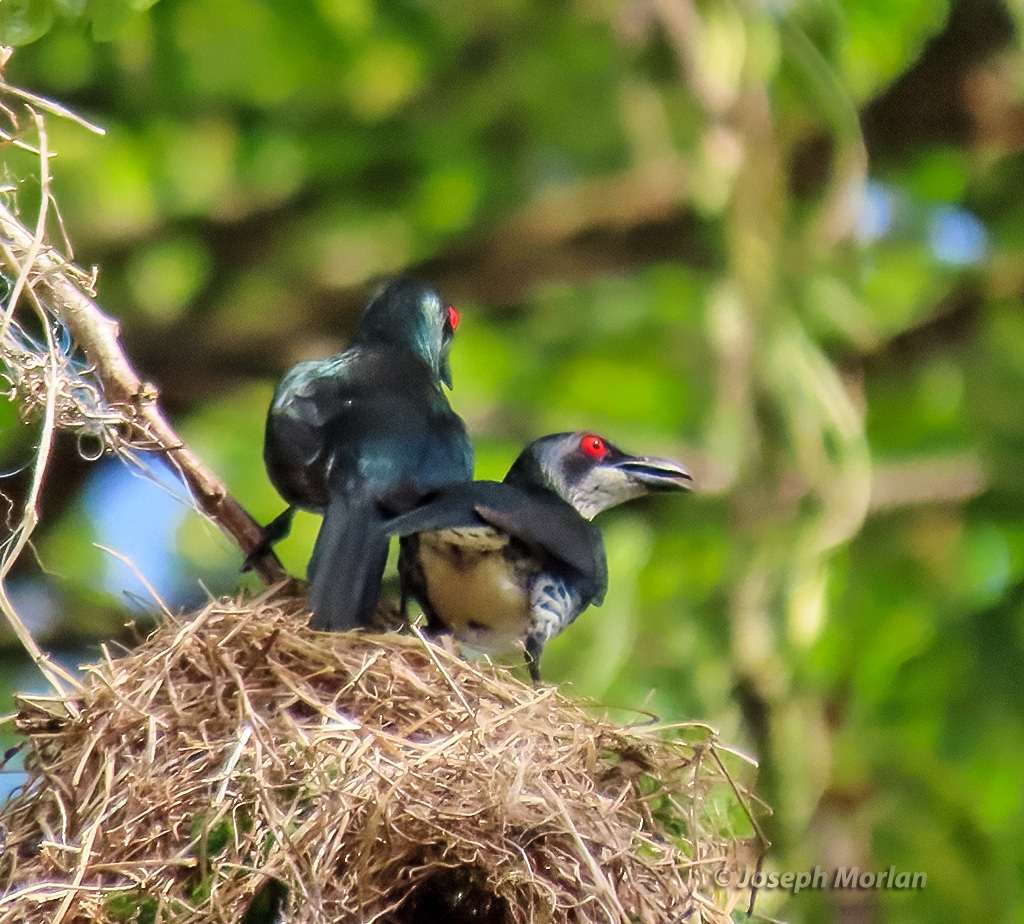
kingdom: Animalia
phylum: Chordata
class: Aves
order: Passeriformes
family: Sturnidae
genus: Aplonis
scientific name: Aplonis metallica
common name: Metallic starling
